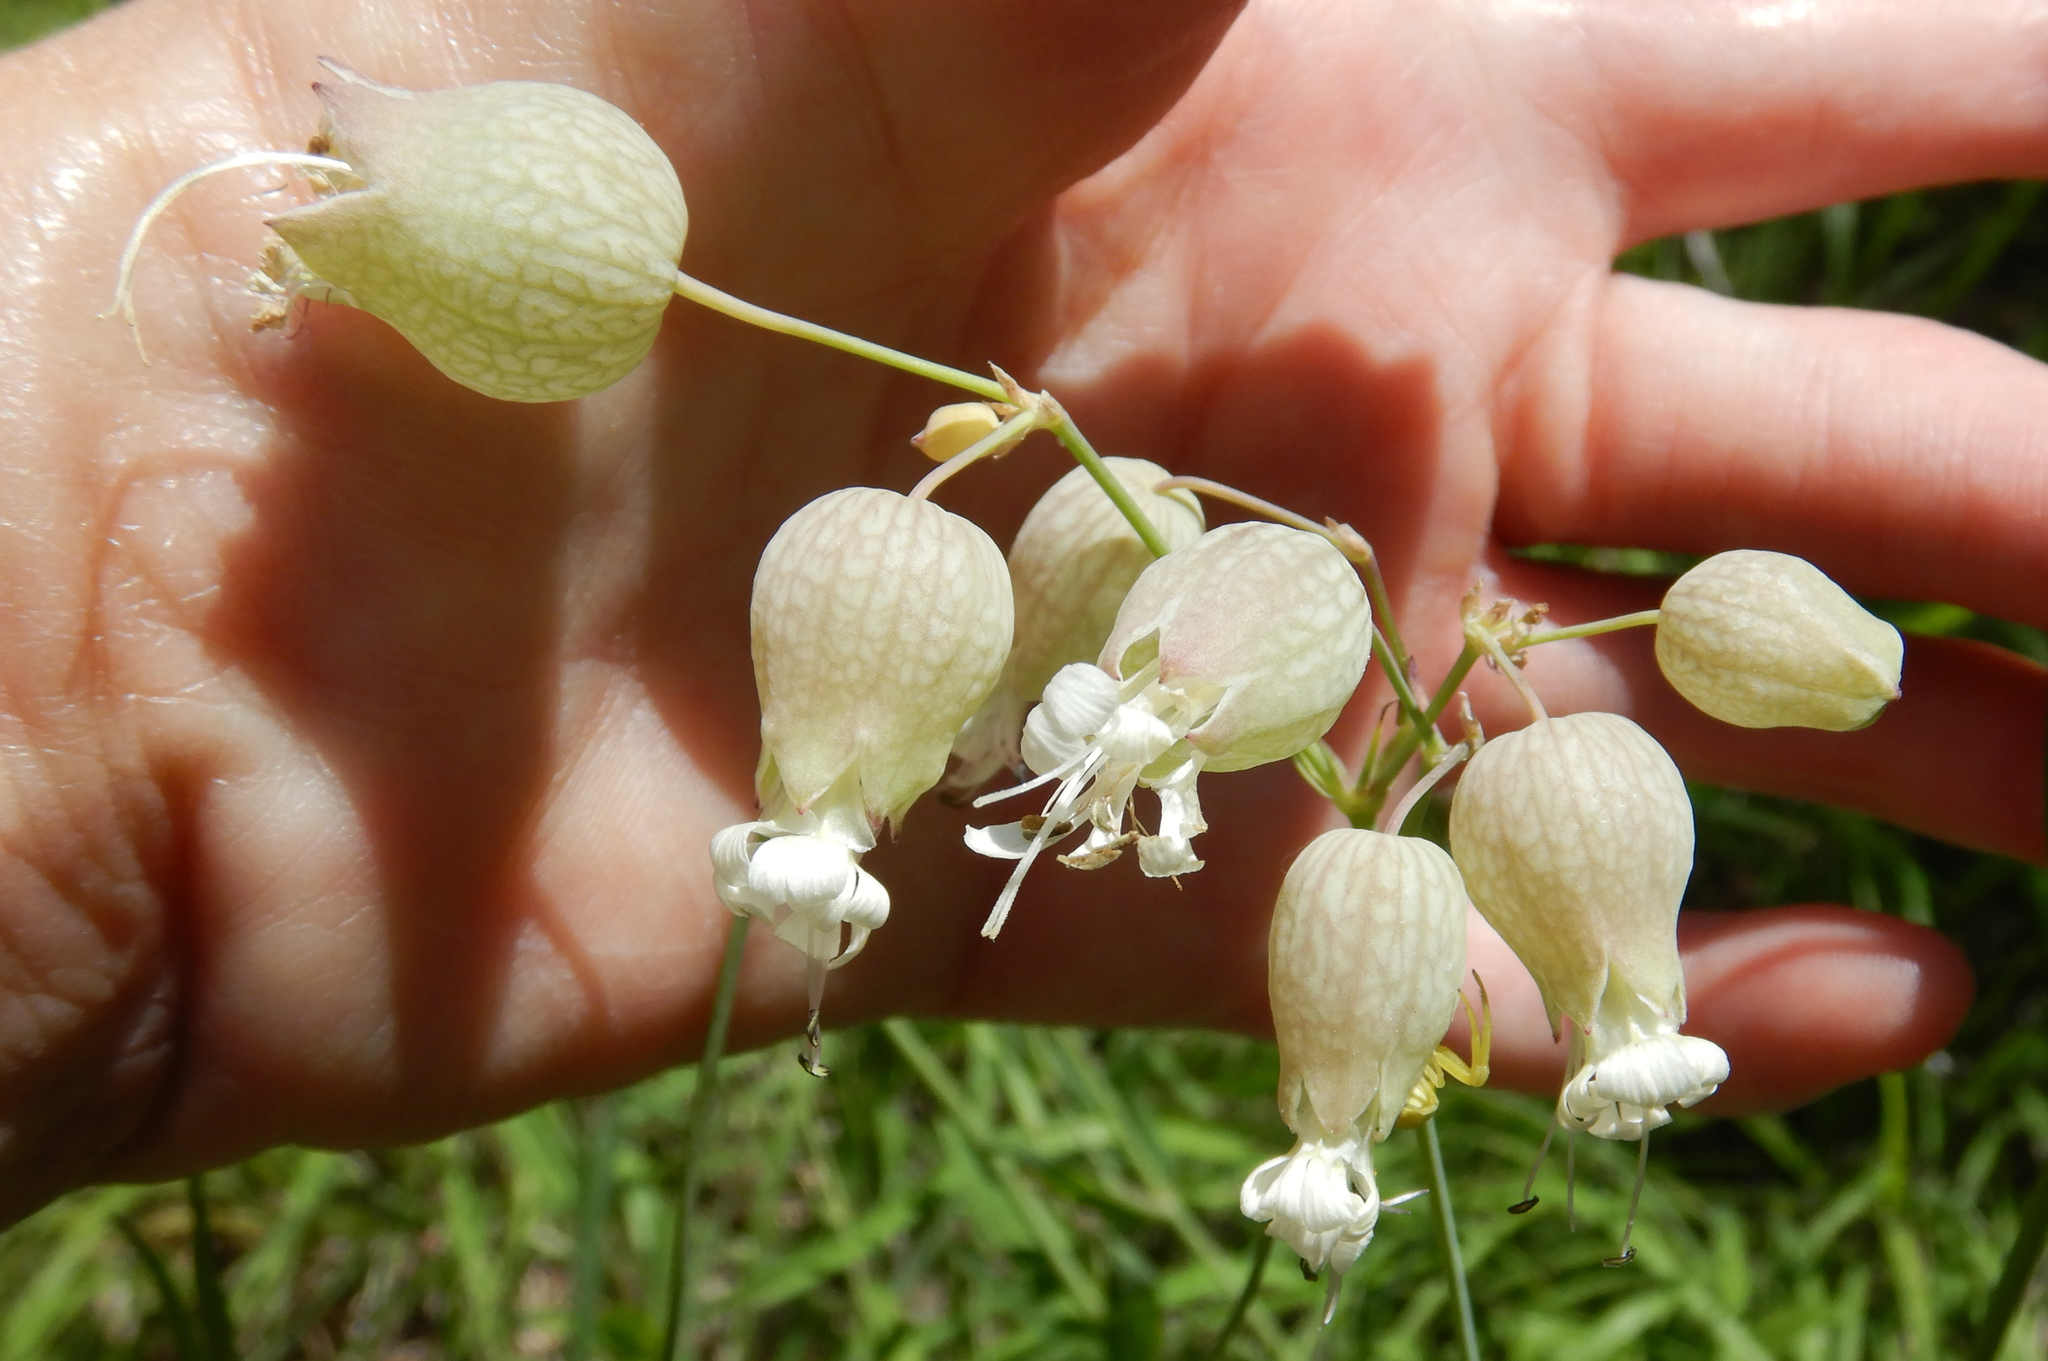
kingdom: Plantae
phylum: Tracheophyta
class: Magnoliopsida
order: Caryophyllales
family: Caryophyllaceae
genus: Silene
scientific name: Silene vulgaris
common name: Bladder campion
